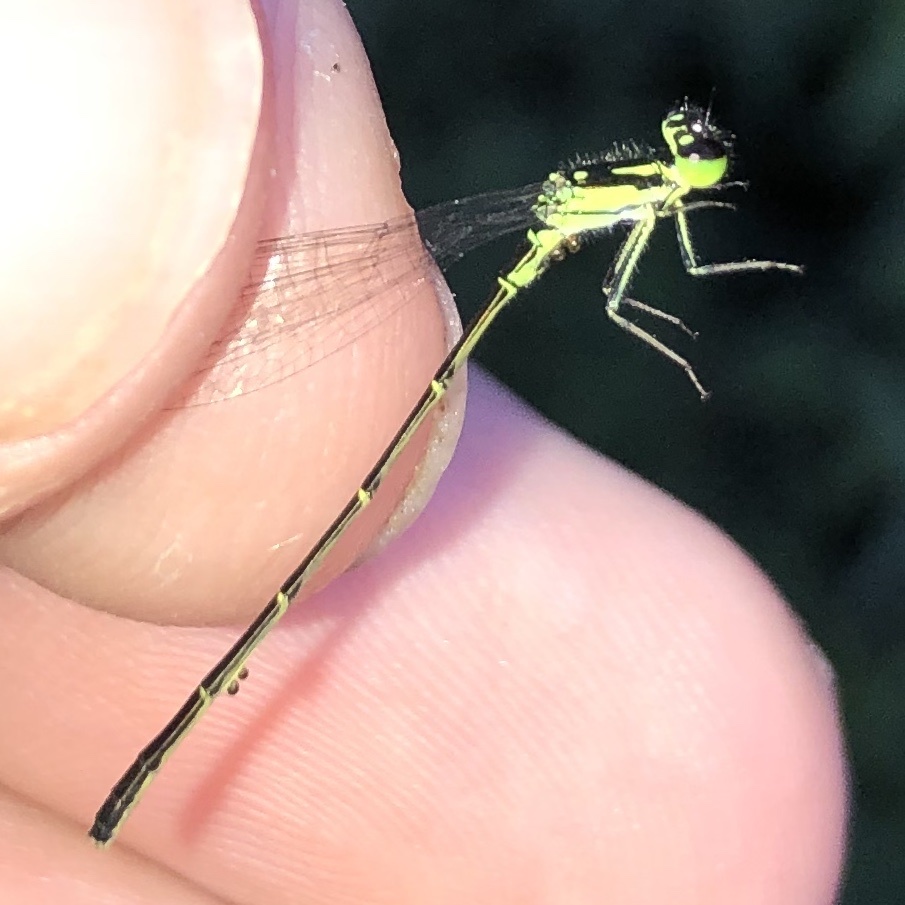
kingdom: Animalia
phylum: Arthropoda
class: Insecta
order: Odonata
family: Coenagrionidae
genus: Ischnura
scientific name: Ischnura posita
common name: Fragile forktail
